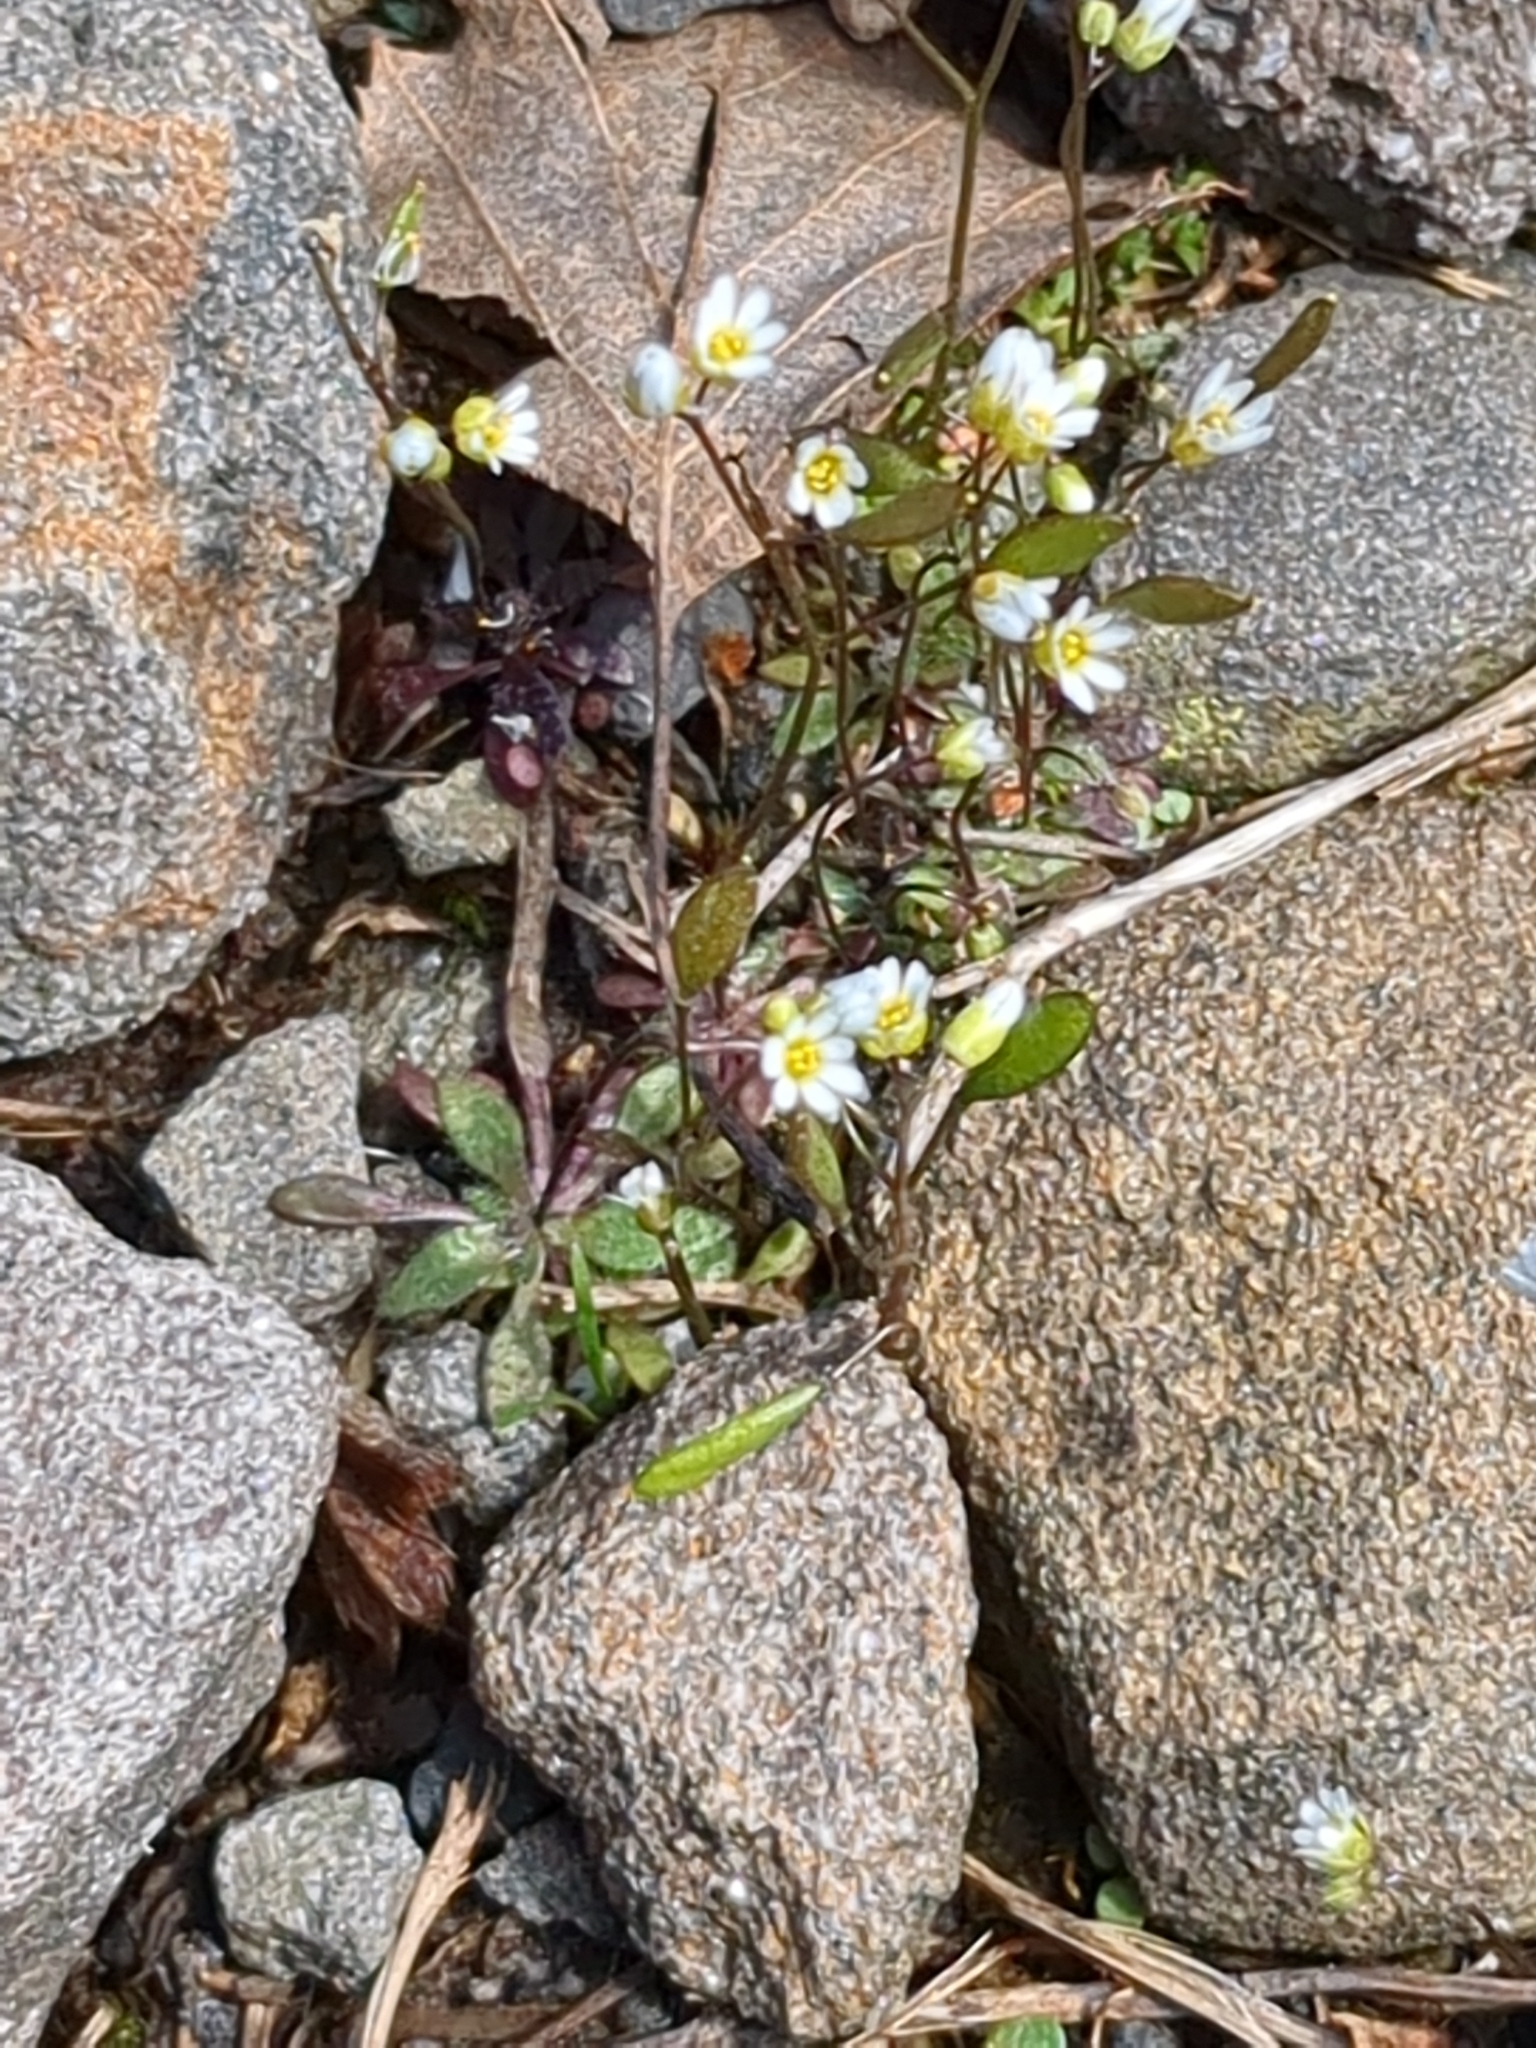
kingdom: Plantae
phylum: Tracheophyta
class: Magnoliopsida
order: Brassicales
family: Brassicaceae
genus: Draba
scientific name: Draba verna
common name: Spring draba
